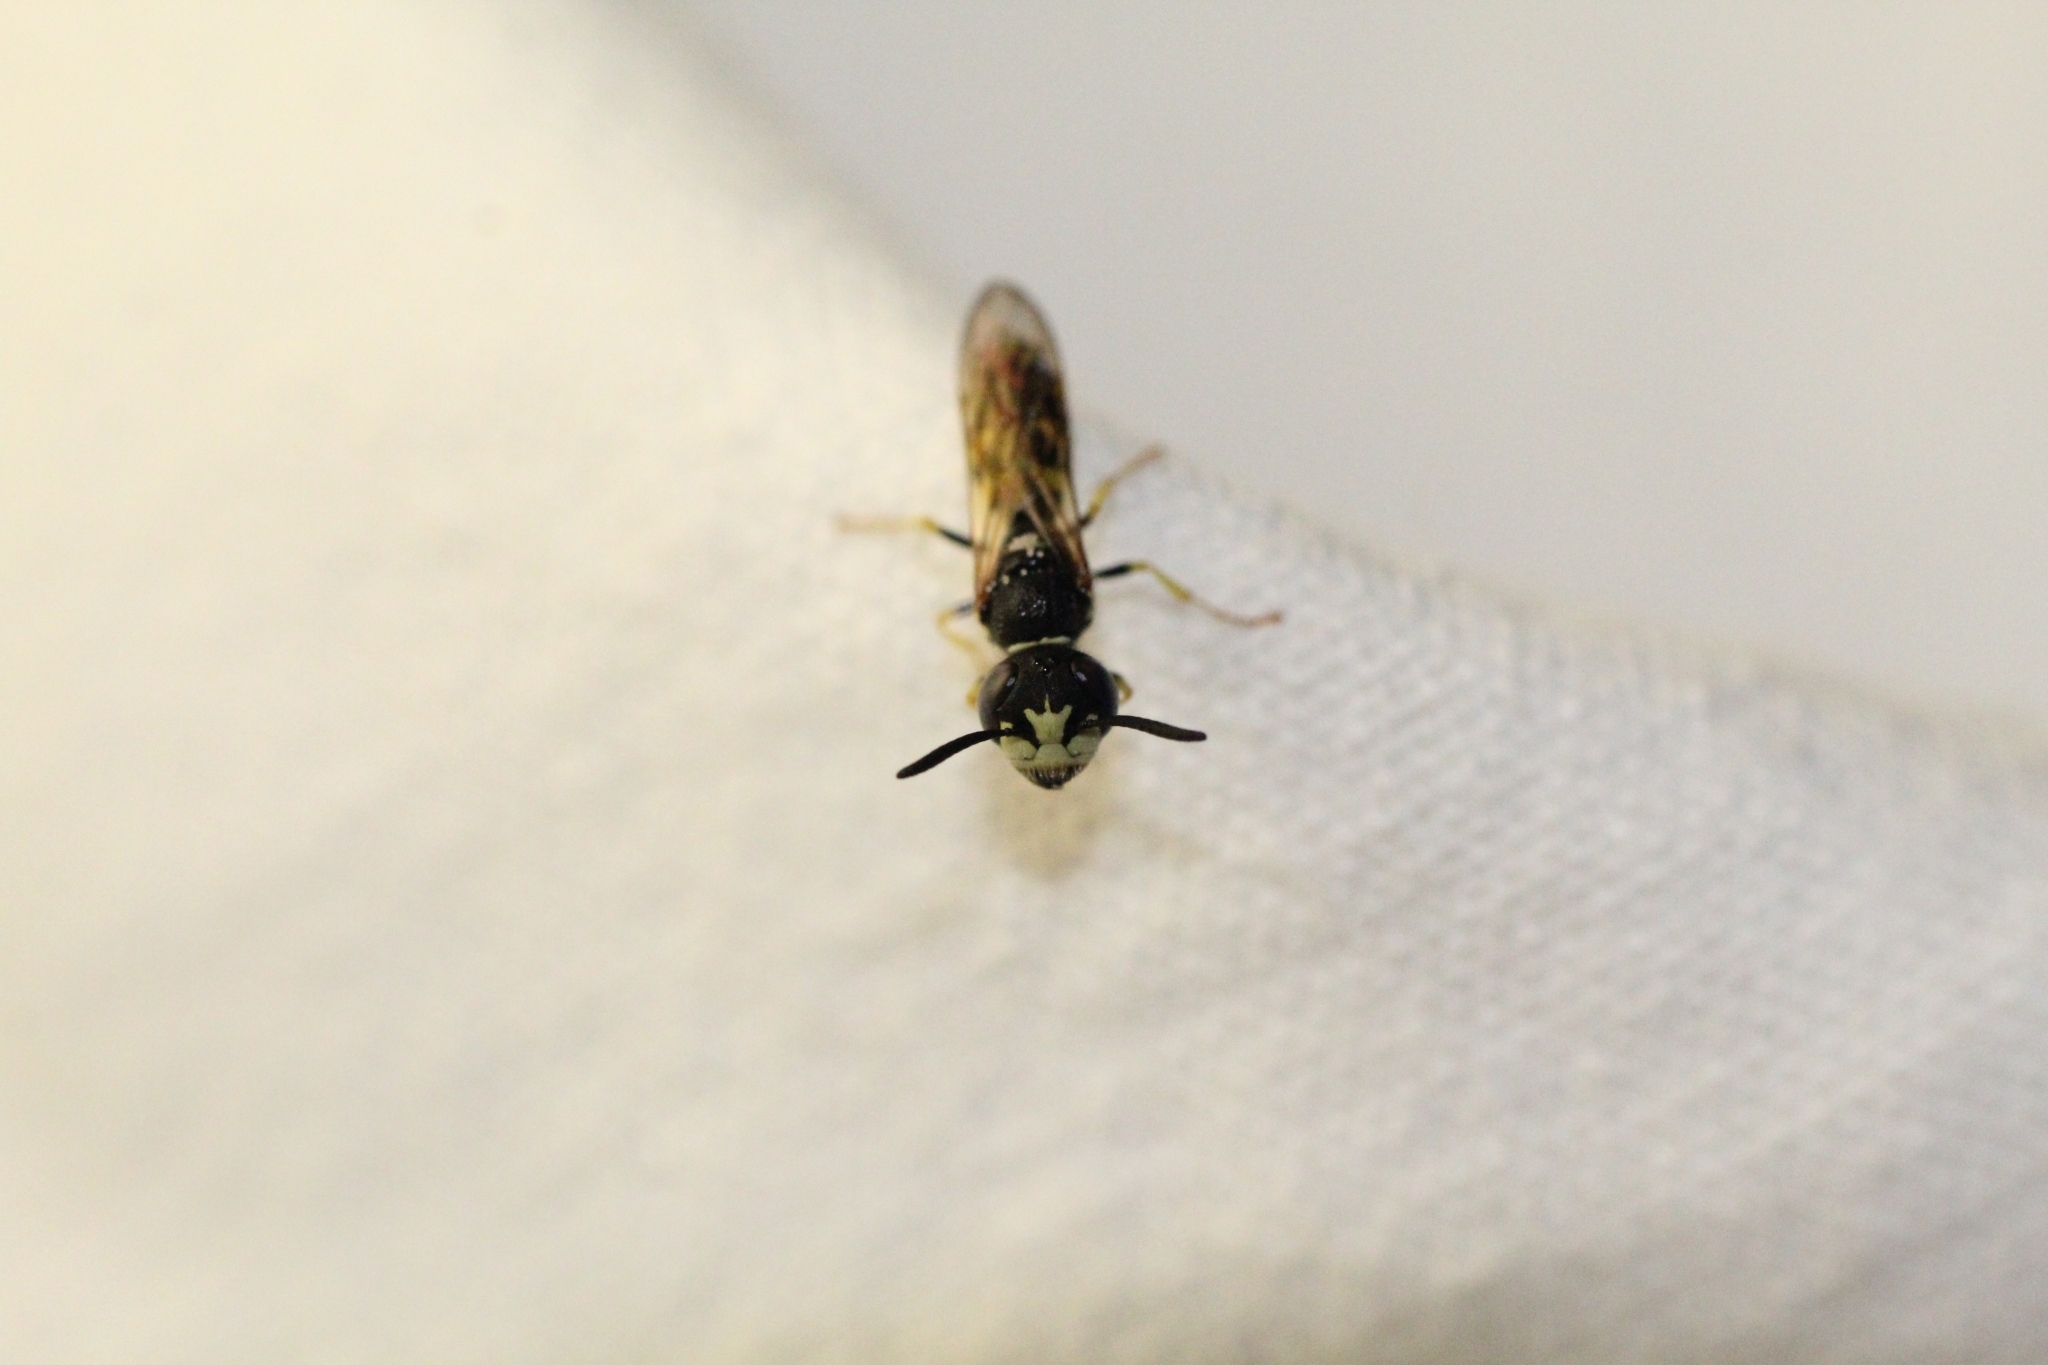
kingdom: Animalia
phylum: Arthropoda
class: Insecta
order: Hymenoptera
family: Crabronidae
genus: Philanthus
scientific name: Philanthus triangulum
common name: Bee wolf
